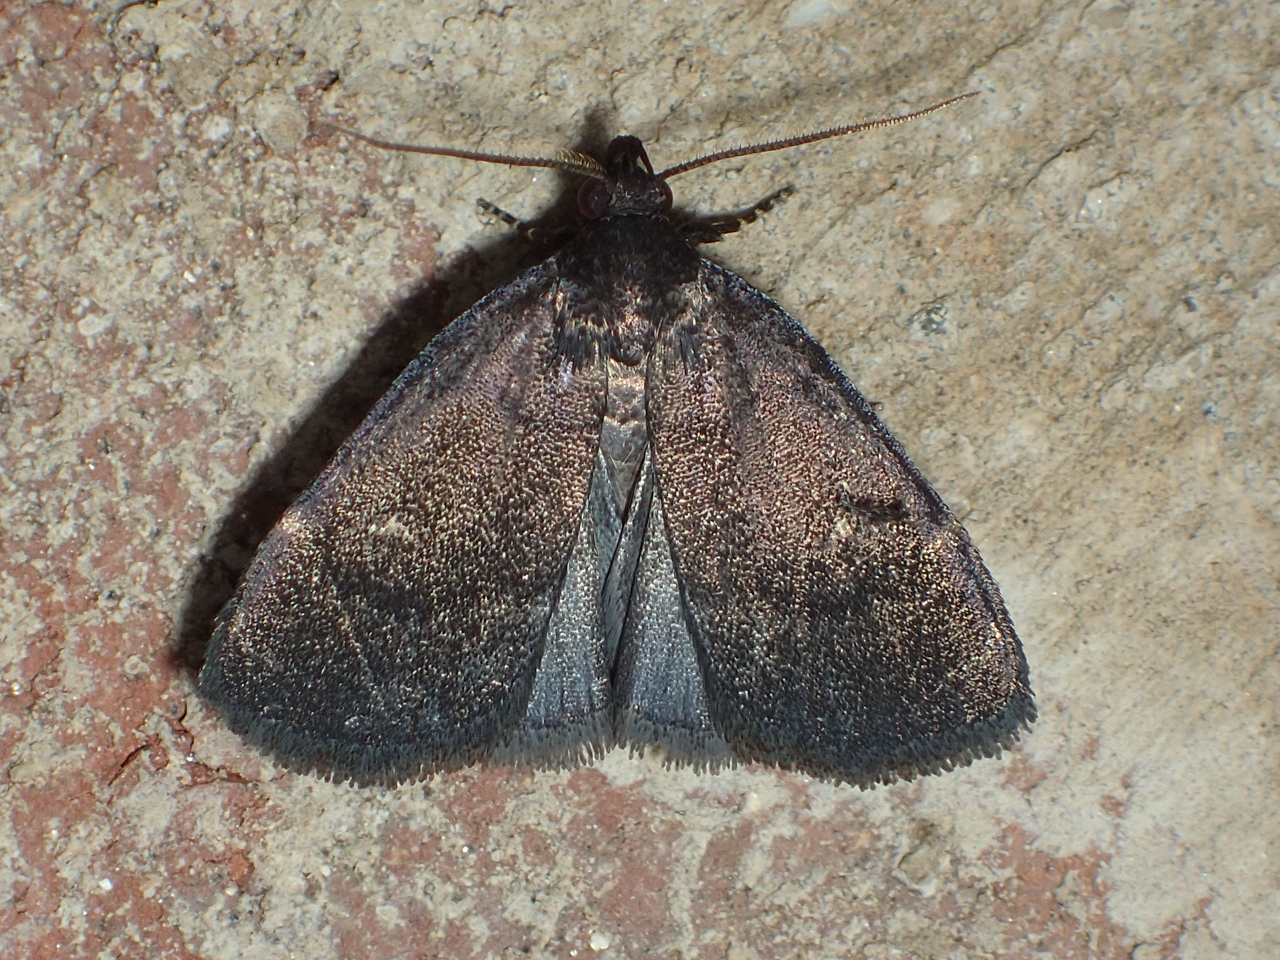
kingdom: Animalia
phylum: Arthropoda
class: Insecta
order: Lepidoptera
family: Erebidae
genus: Idia
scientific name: Idia rotundalis
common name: Rotund idia moth
